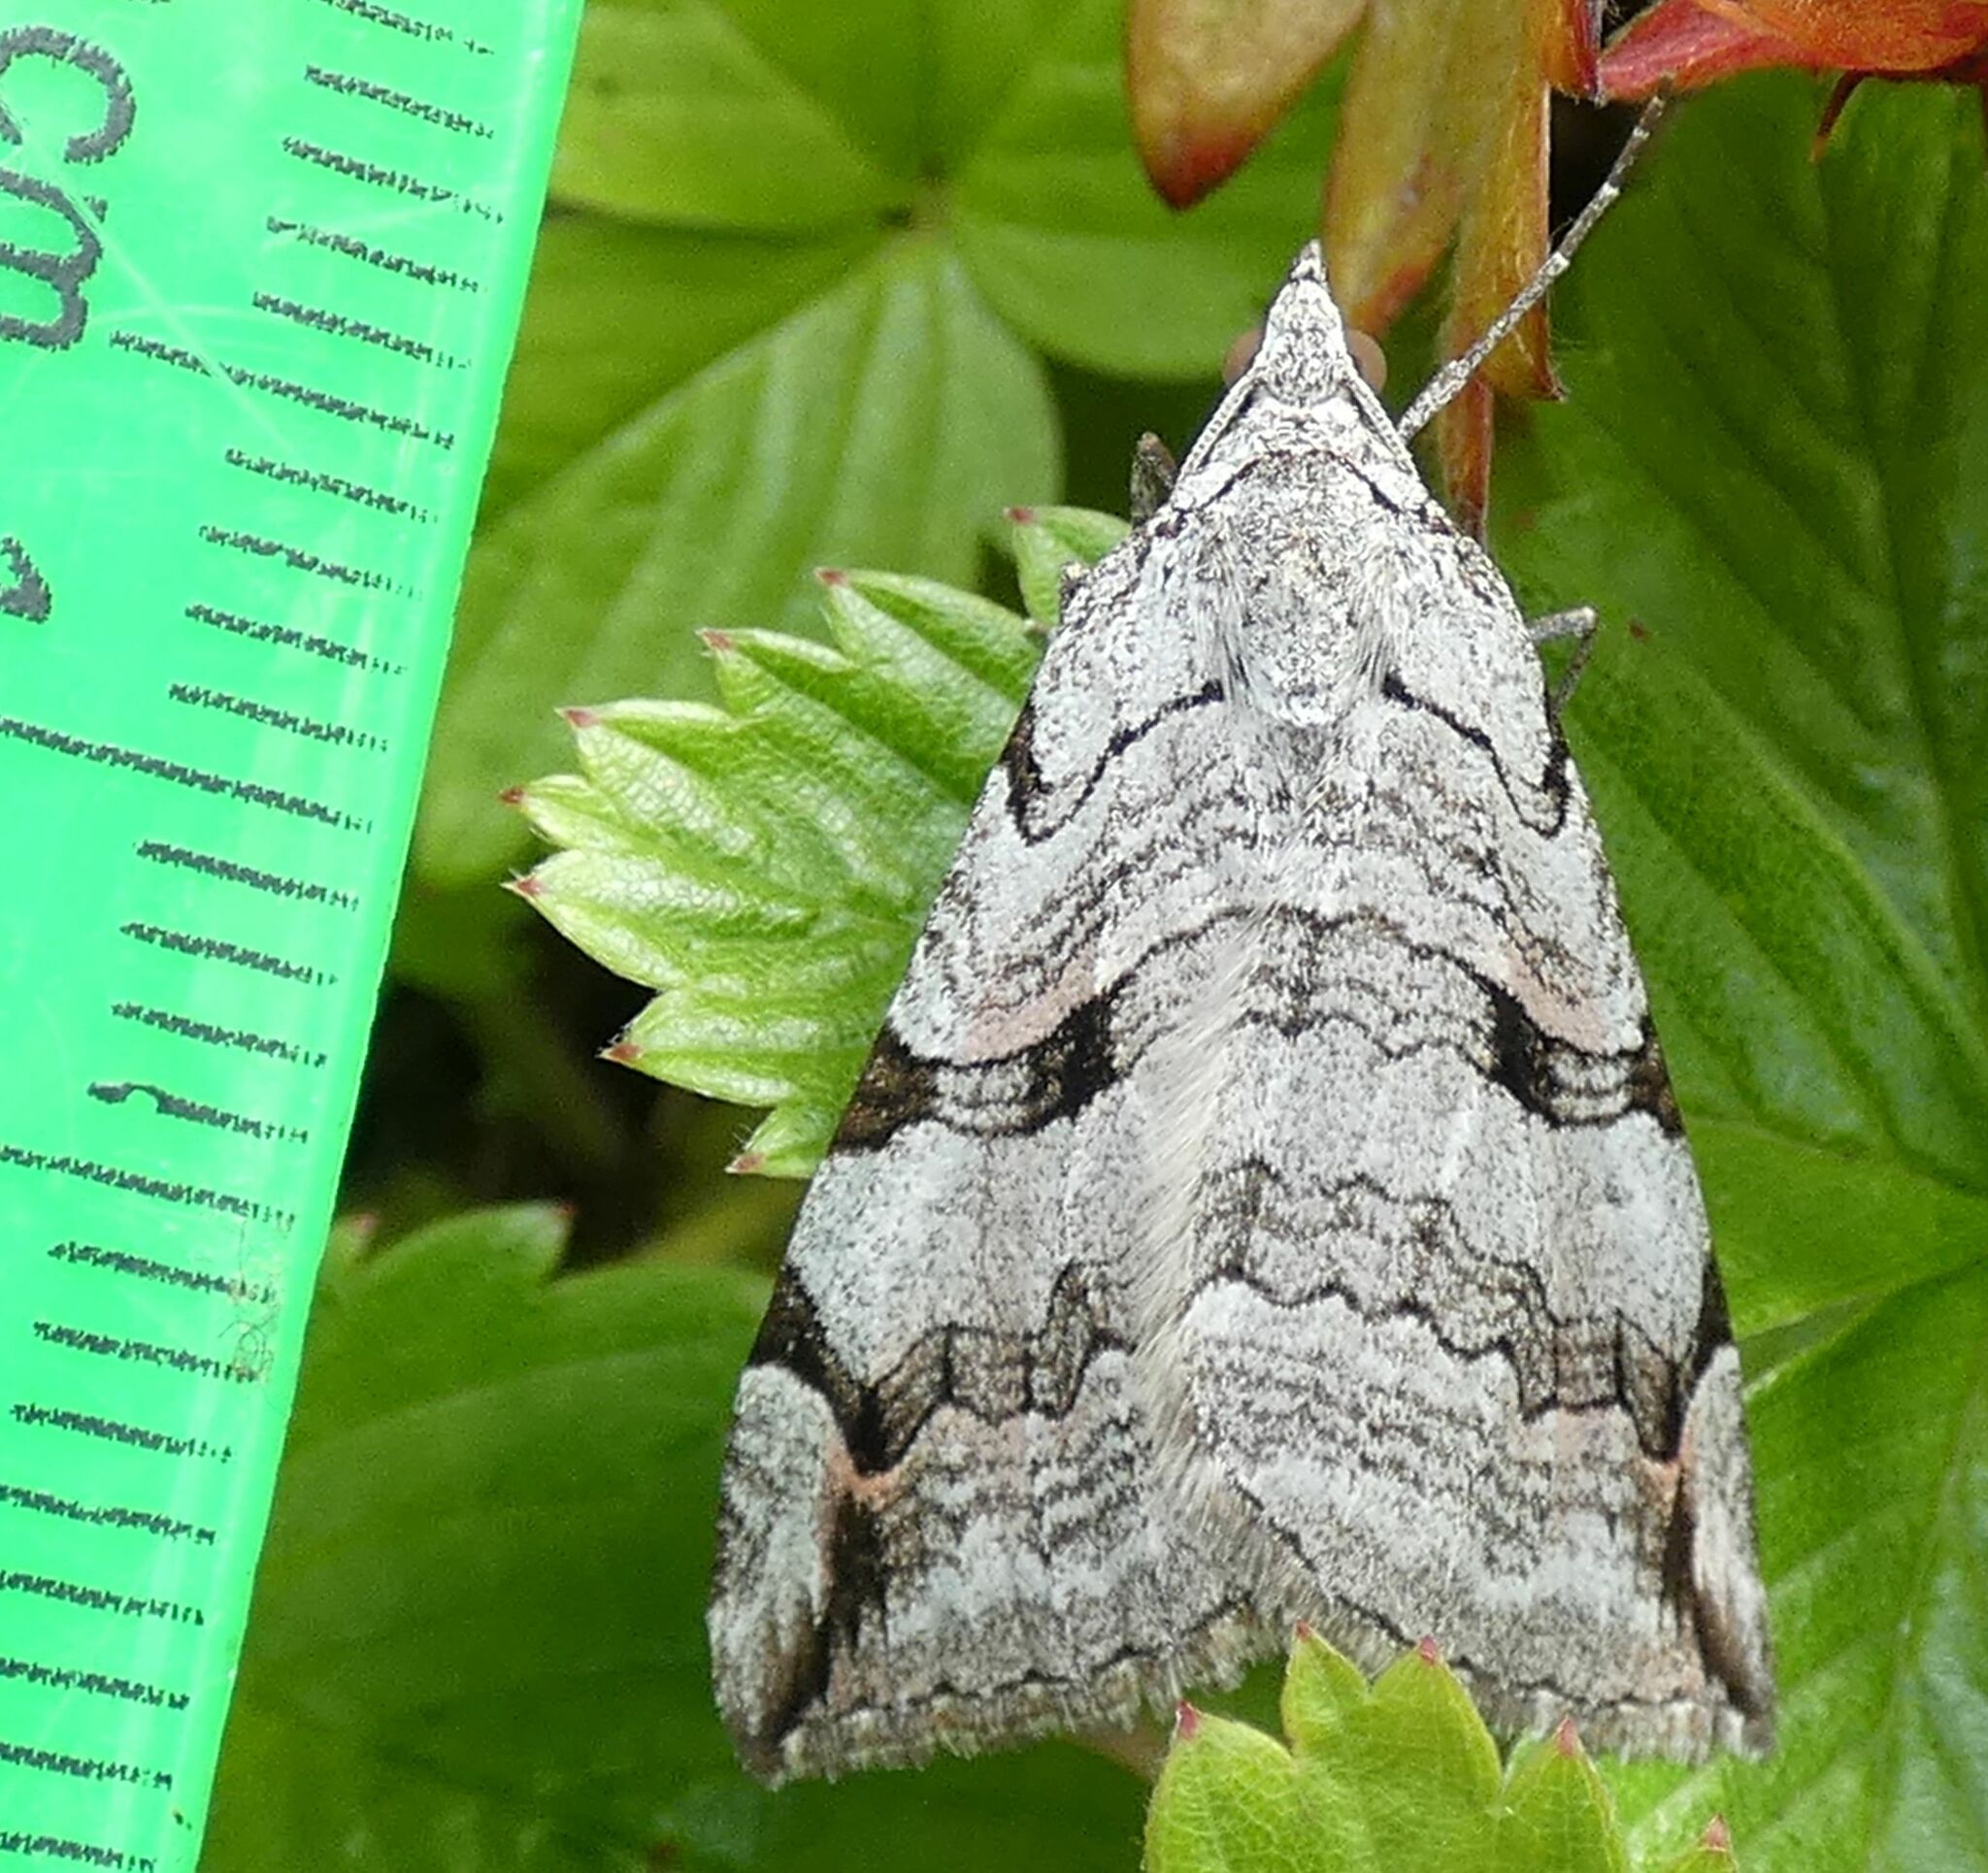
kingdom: Animalia
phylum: Arthropoda
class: Insecta
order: Lepidoptera
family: Geometridae
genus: Aplocera
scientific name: Aplocera
